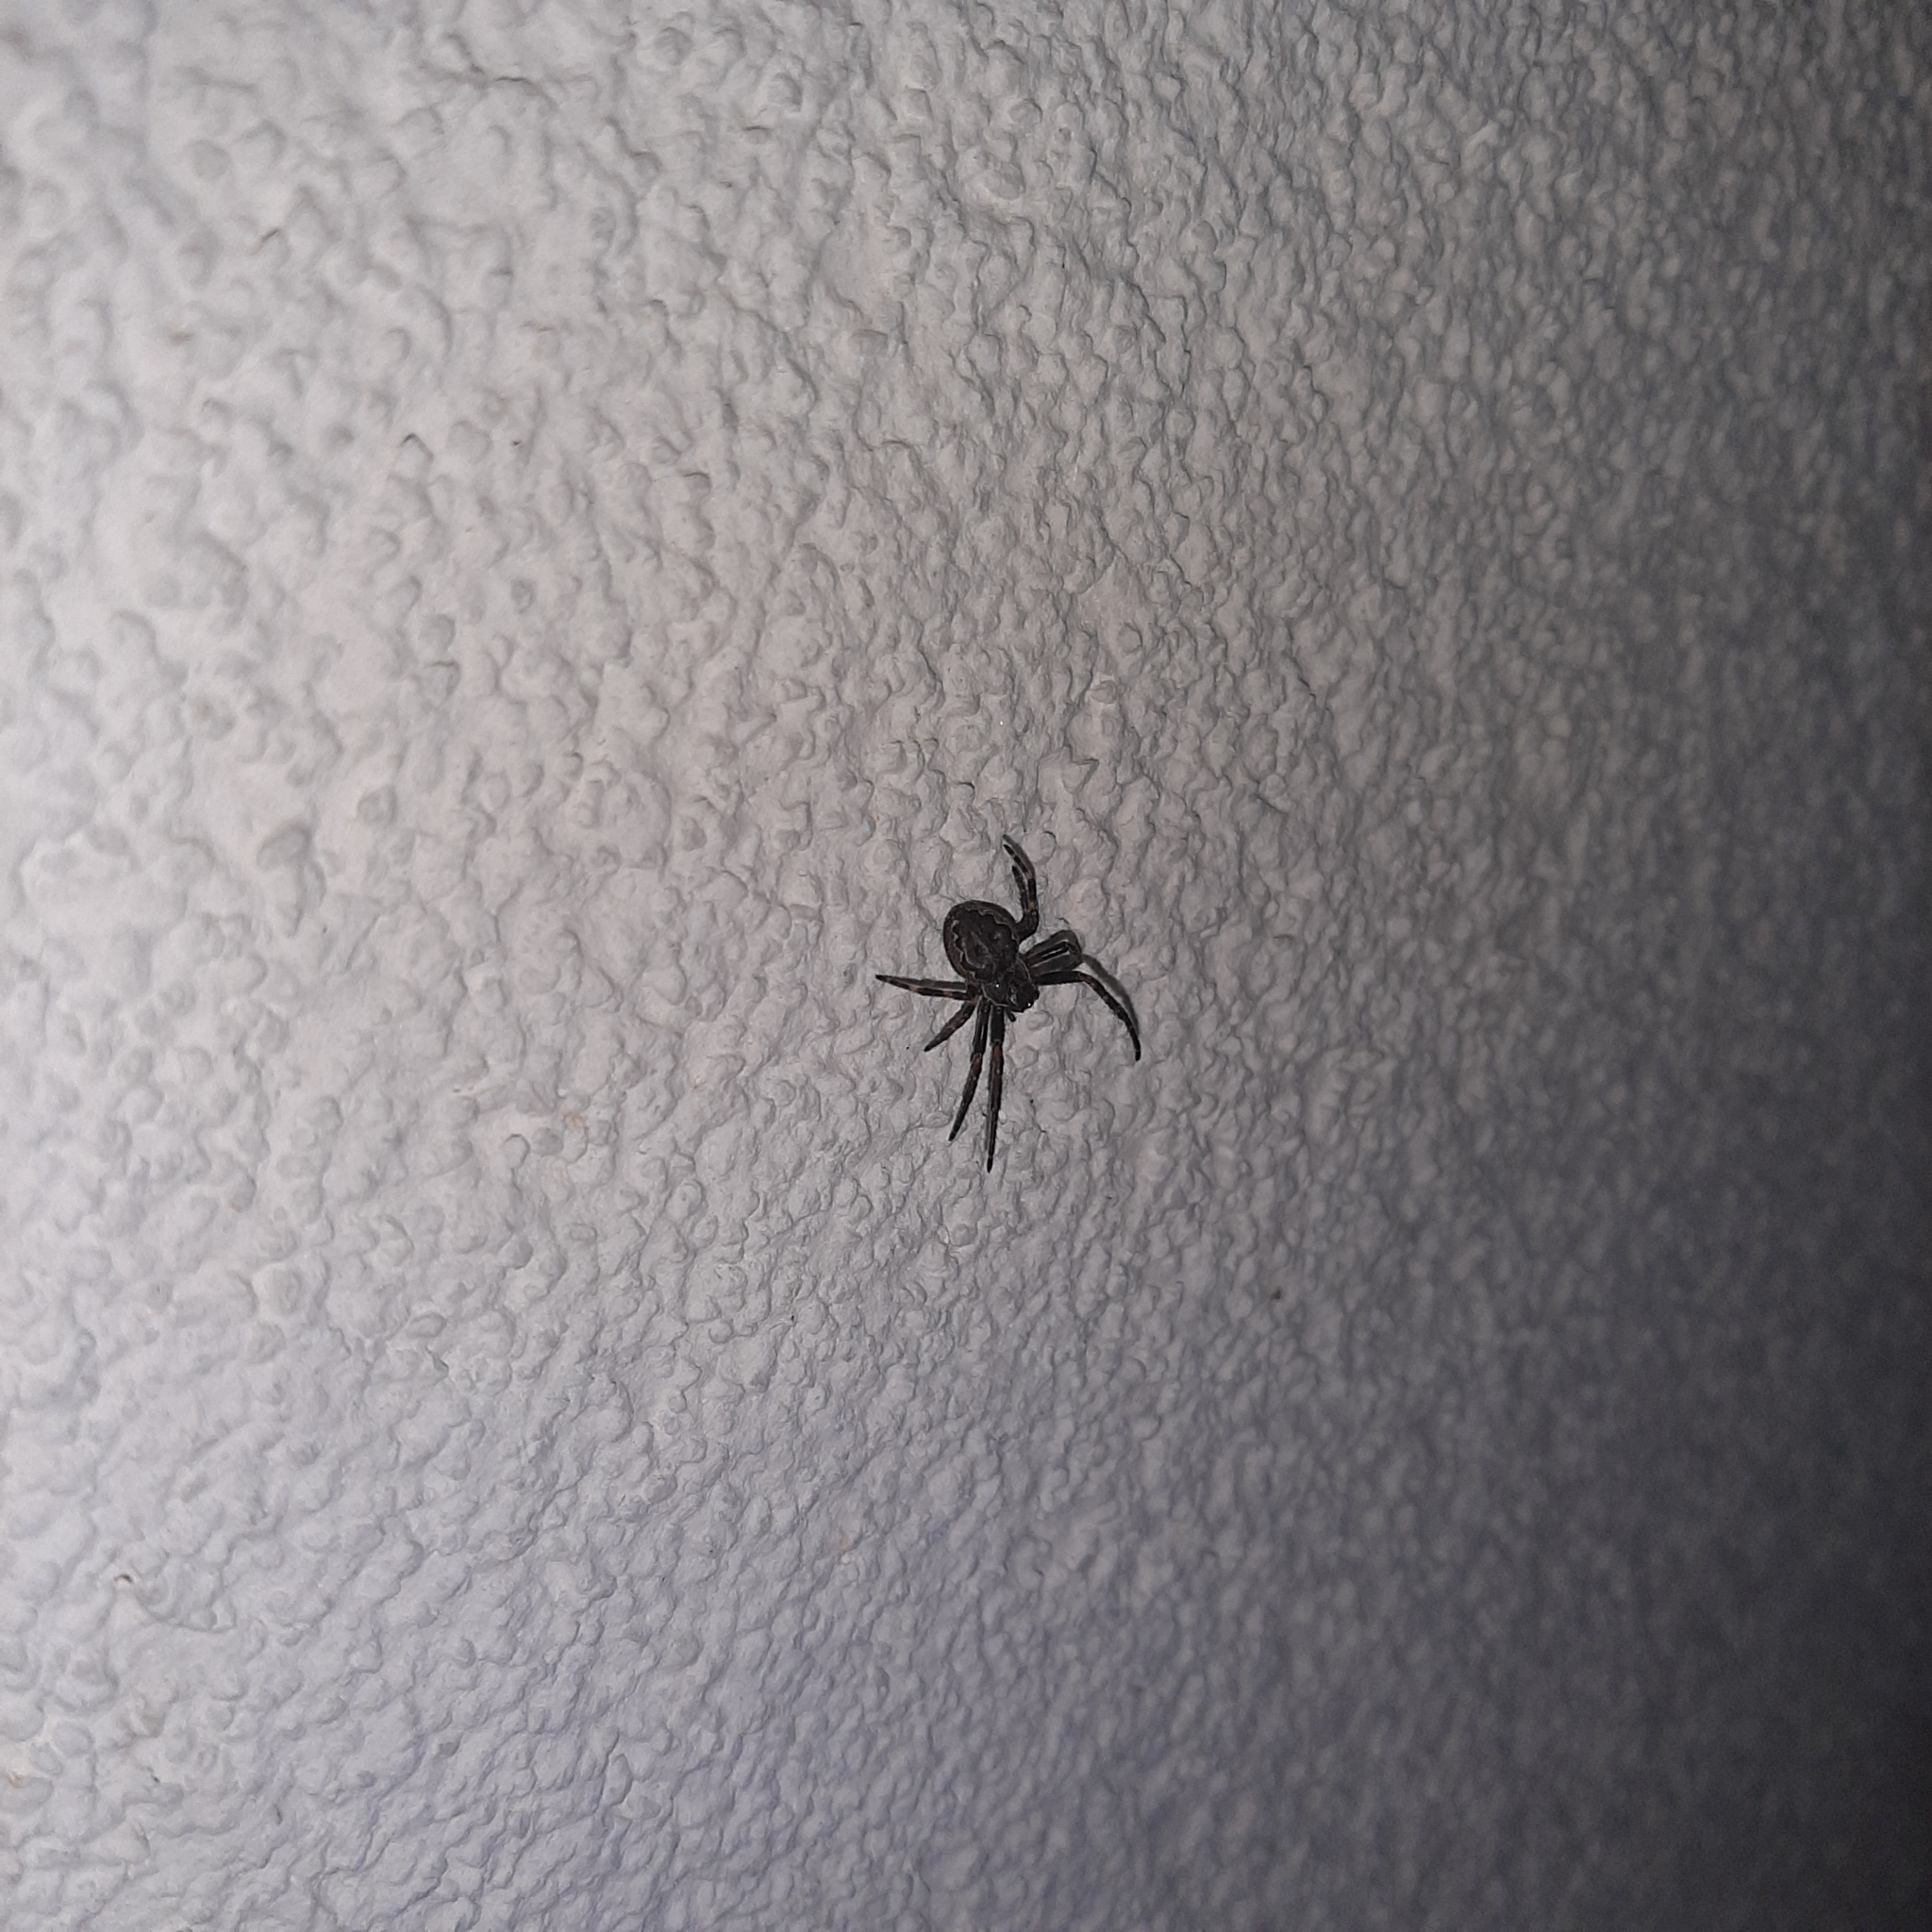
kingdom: Animalia
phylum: Arthropoda
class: Arachnida
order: Araneae
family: Araneidae
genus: Nuctenea
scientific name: Nuctenea umbratica
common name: Toad spider
